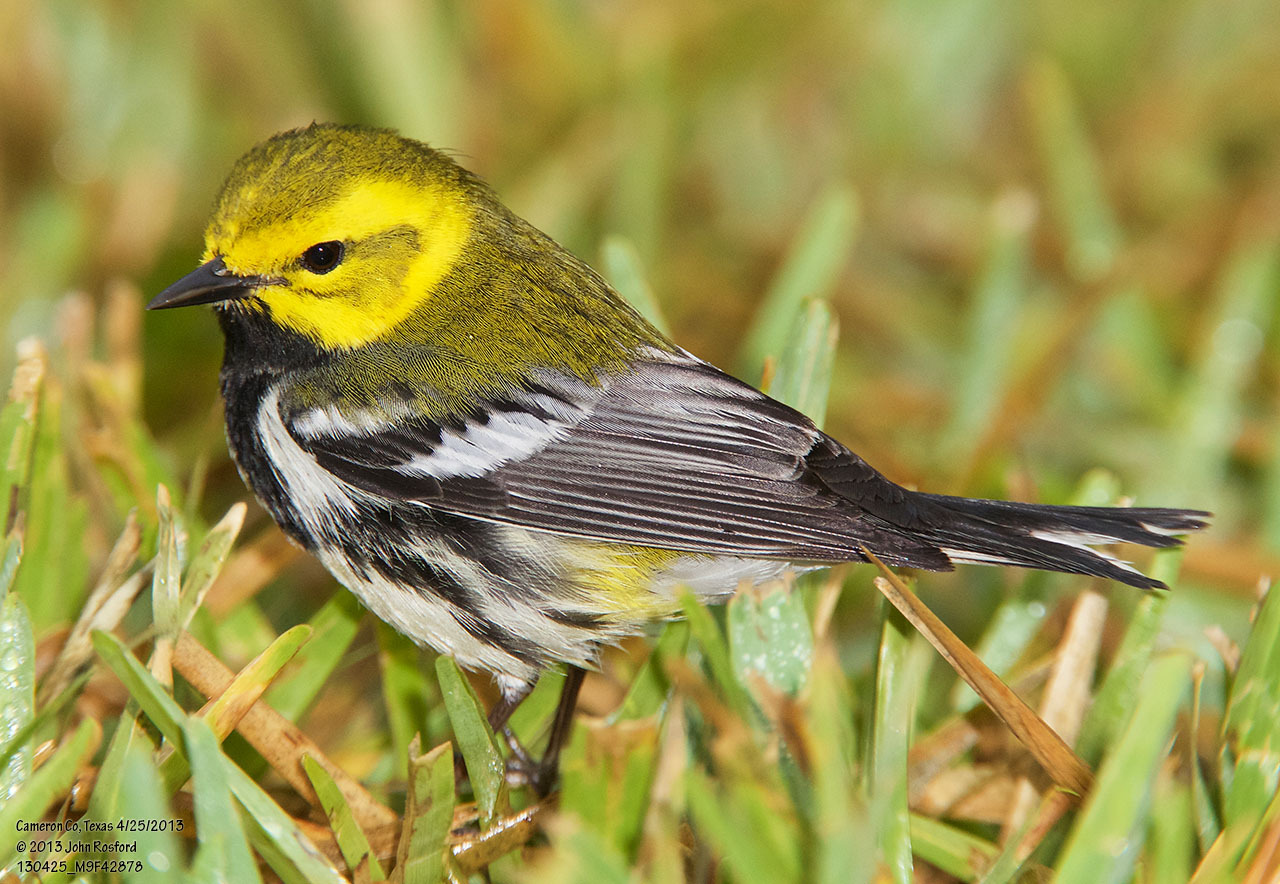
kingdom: Animalia
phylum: Chordata
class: Aves
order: Passeriformes
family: Parulidae
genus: Setophaga
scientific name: Setophaga virens
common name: Black-throated green warbler
